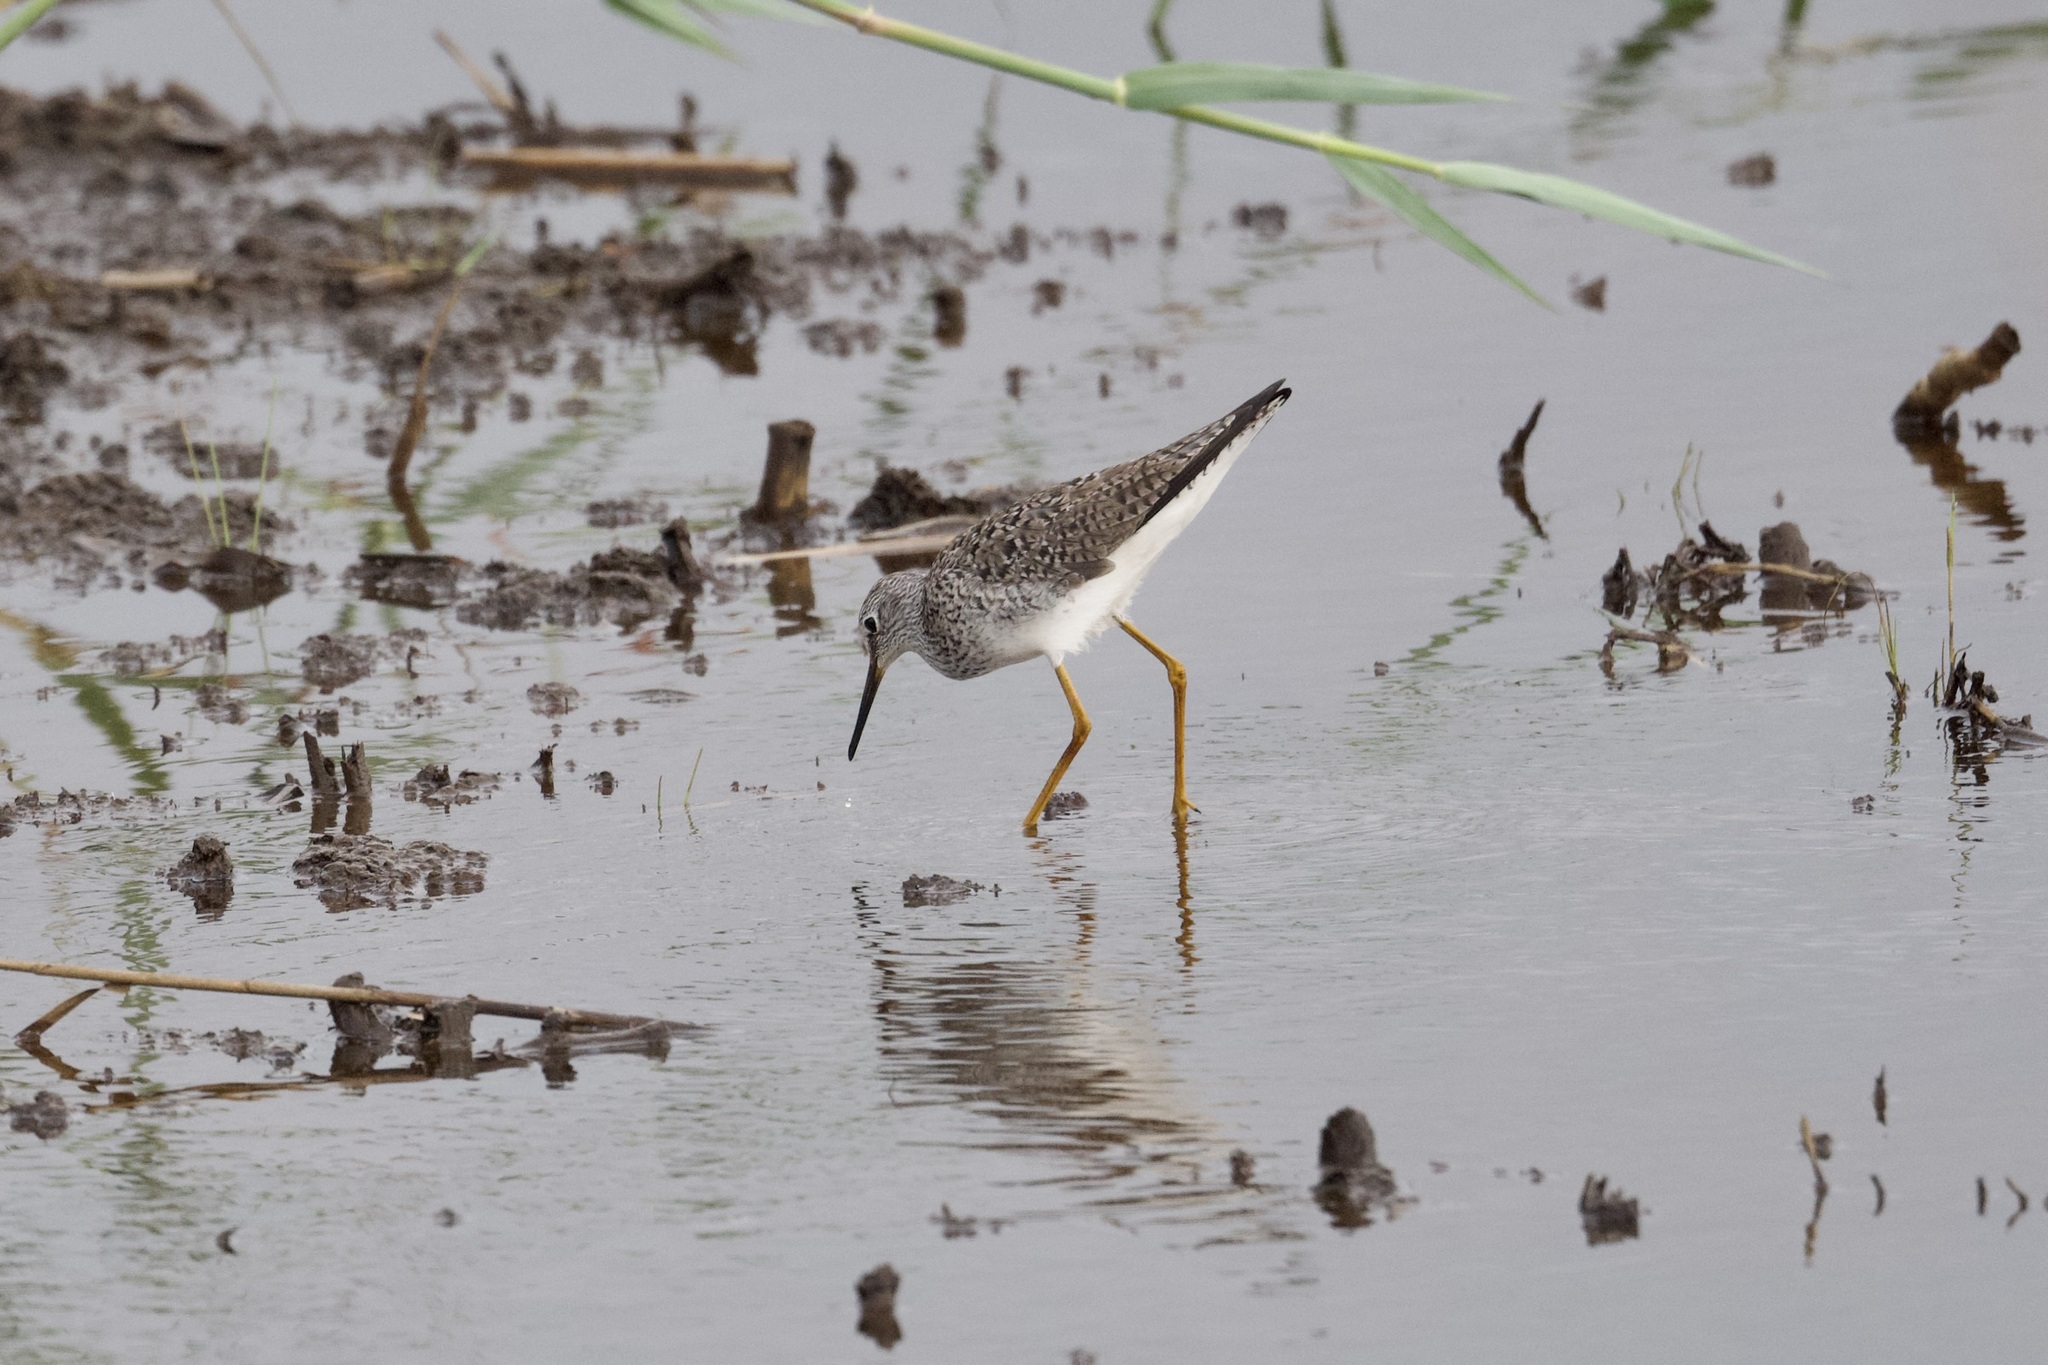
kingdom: Animalia
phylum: Chordata
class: Aves
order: Charadriiformes
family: Scolopacidae
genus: Tringa
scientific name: Tringa flavipes
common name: Lesser yellowlegs
